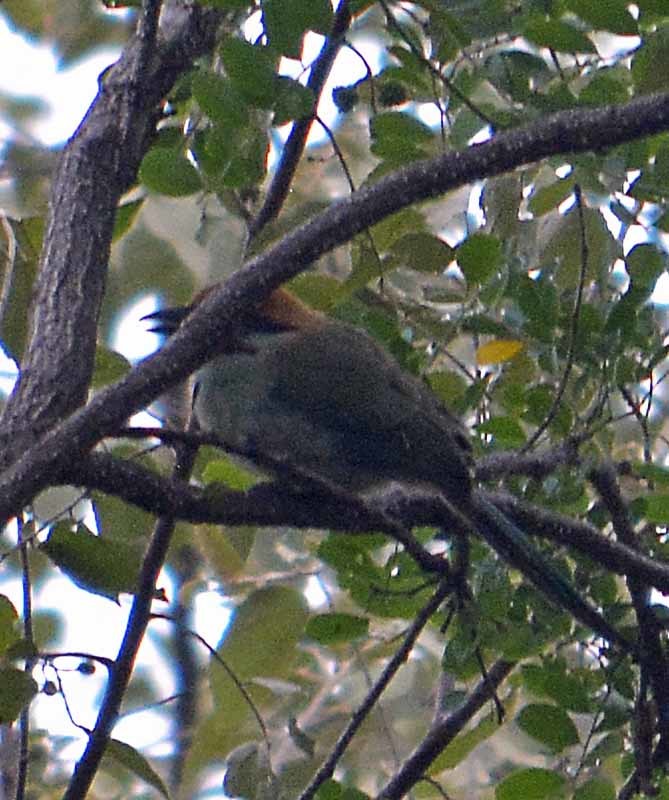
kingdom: Animalia
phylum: Chordata
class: Aves
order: Coraciiformes
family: Momotidae
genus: Momotus
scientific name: Momotus mexicanus
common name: Russet-crowned motmot
